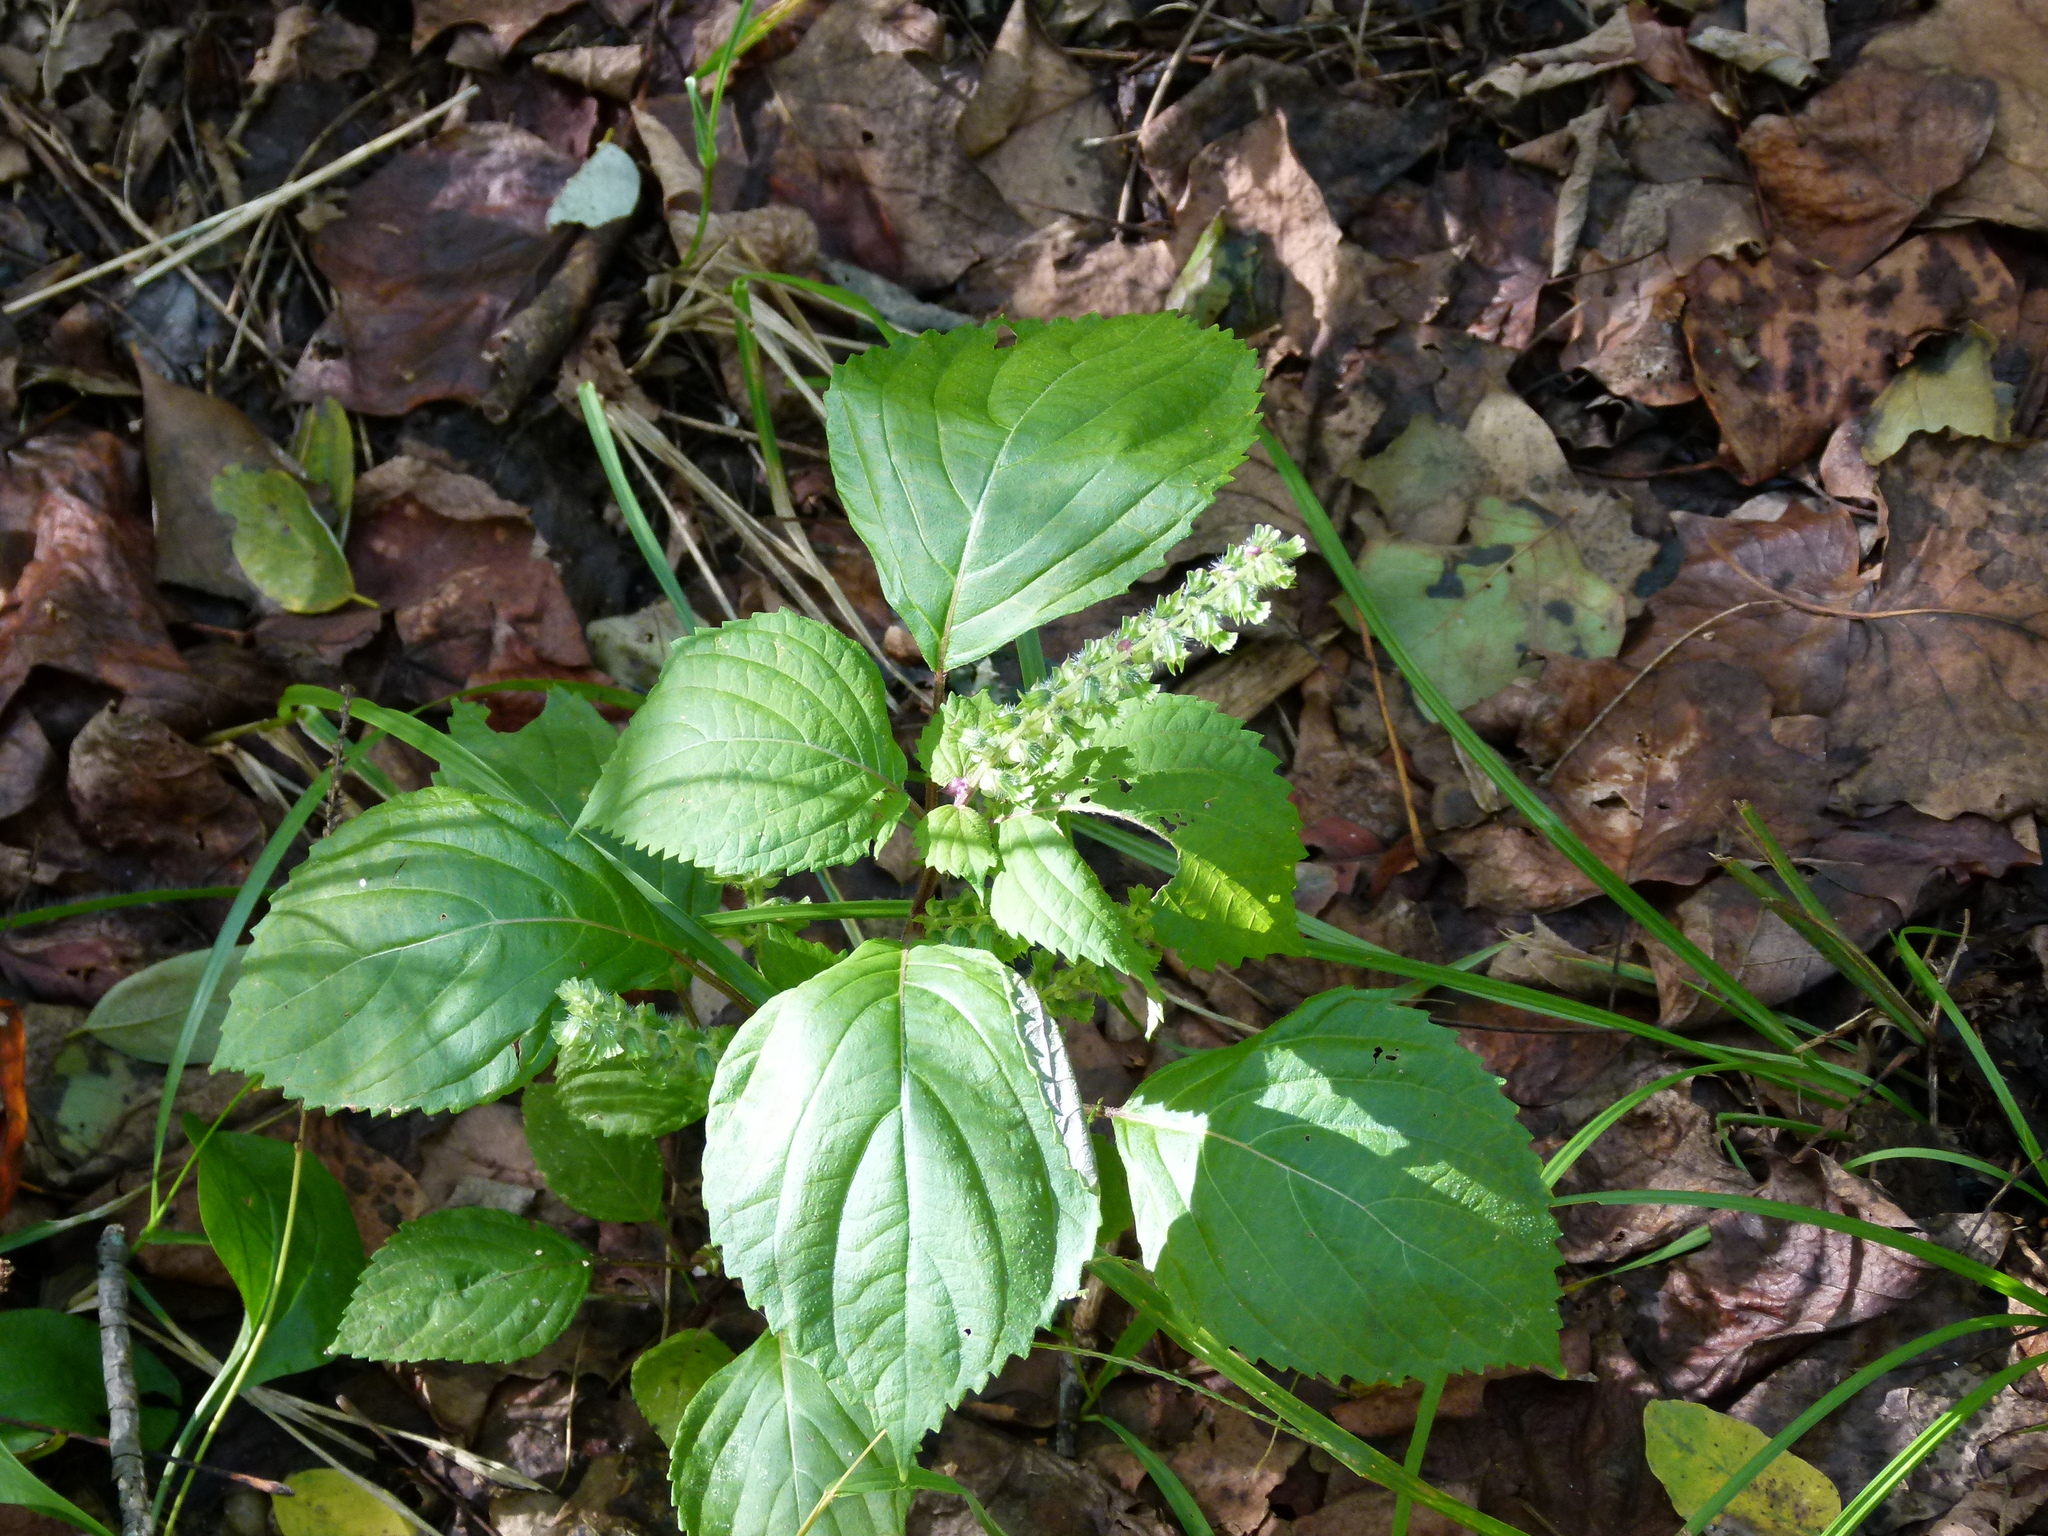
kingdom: Plantae
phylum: Tracheophyta
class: Magnoliopsida
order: Lamiales
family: Lamiaceae
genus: Perilla
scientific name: Perilla frutescens
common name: Perilla
